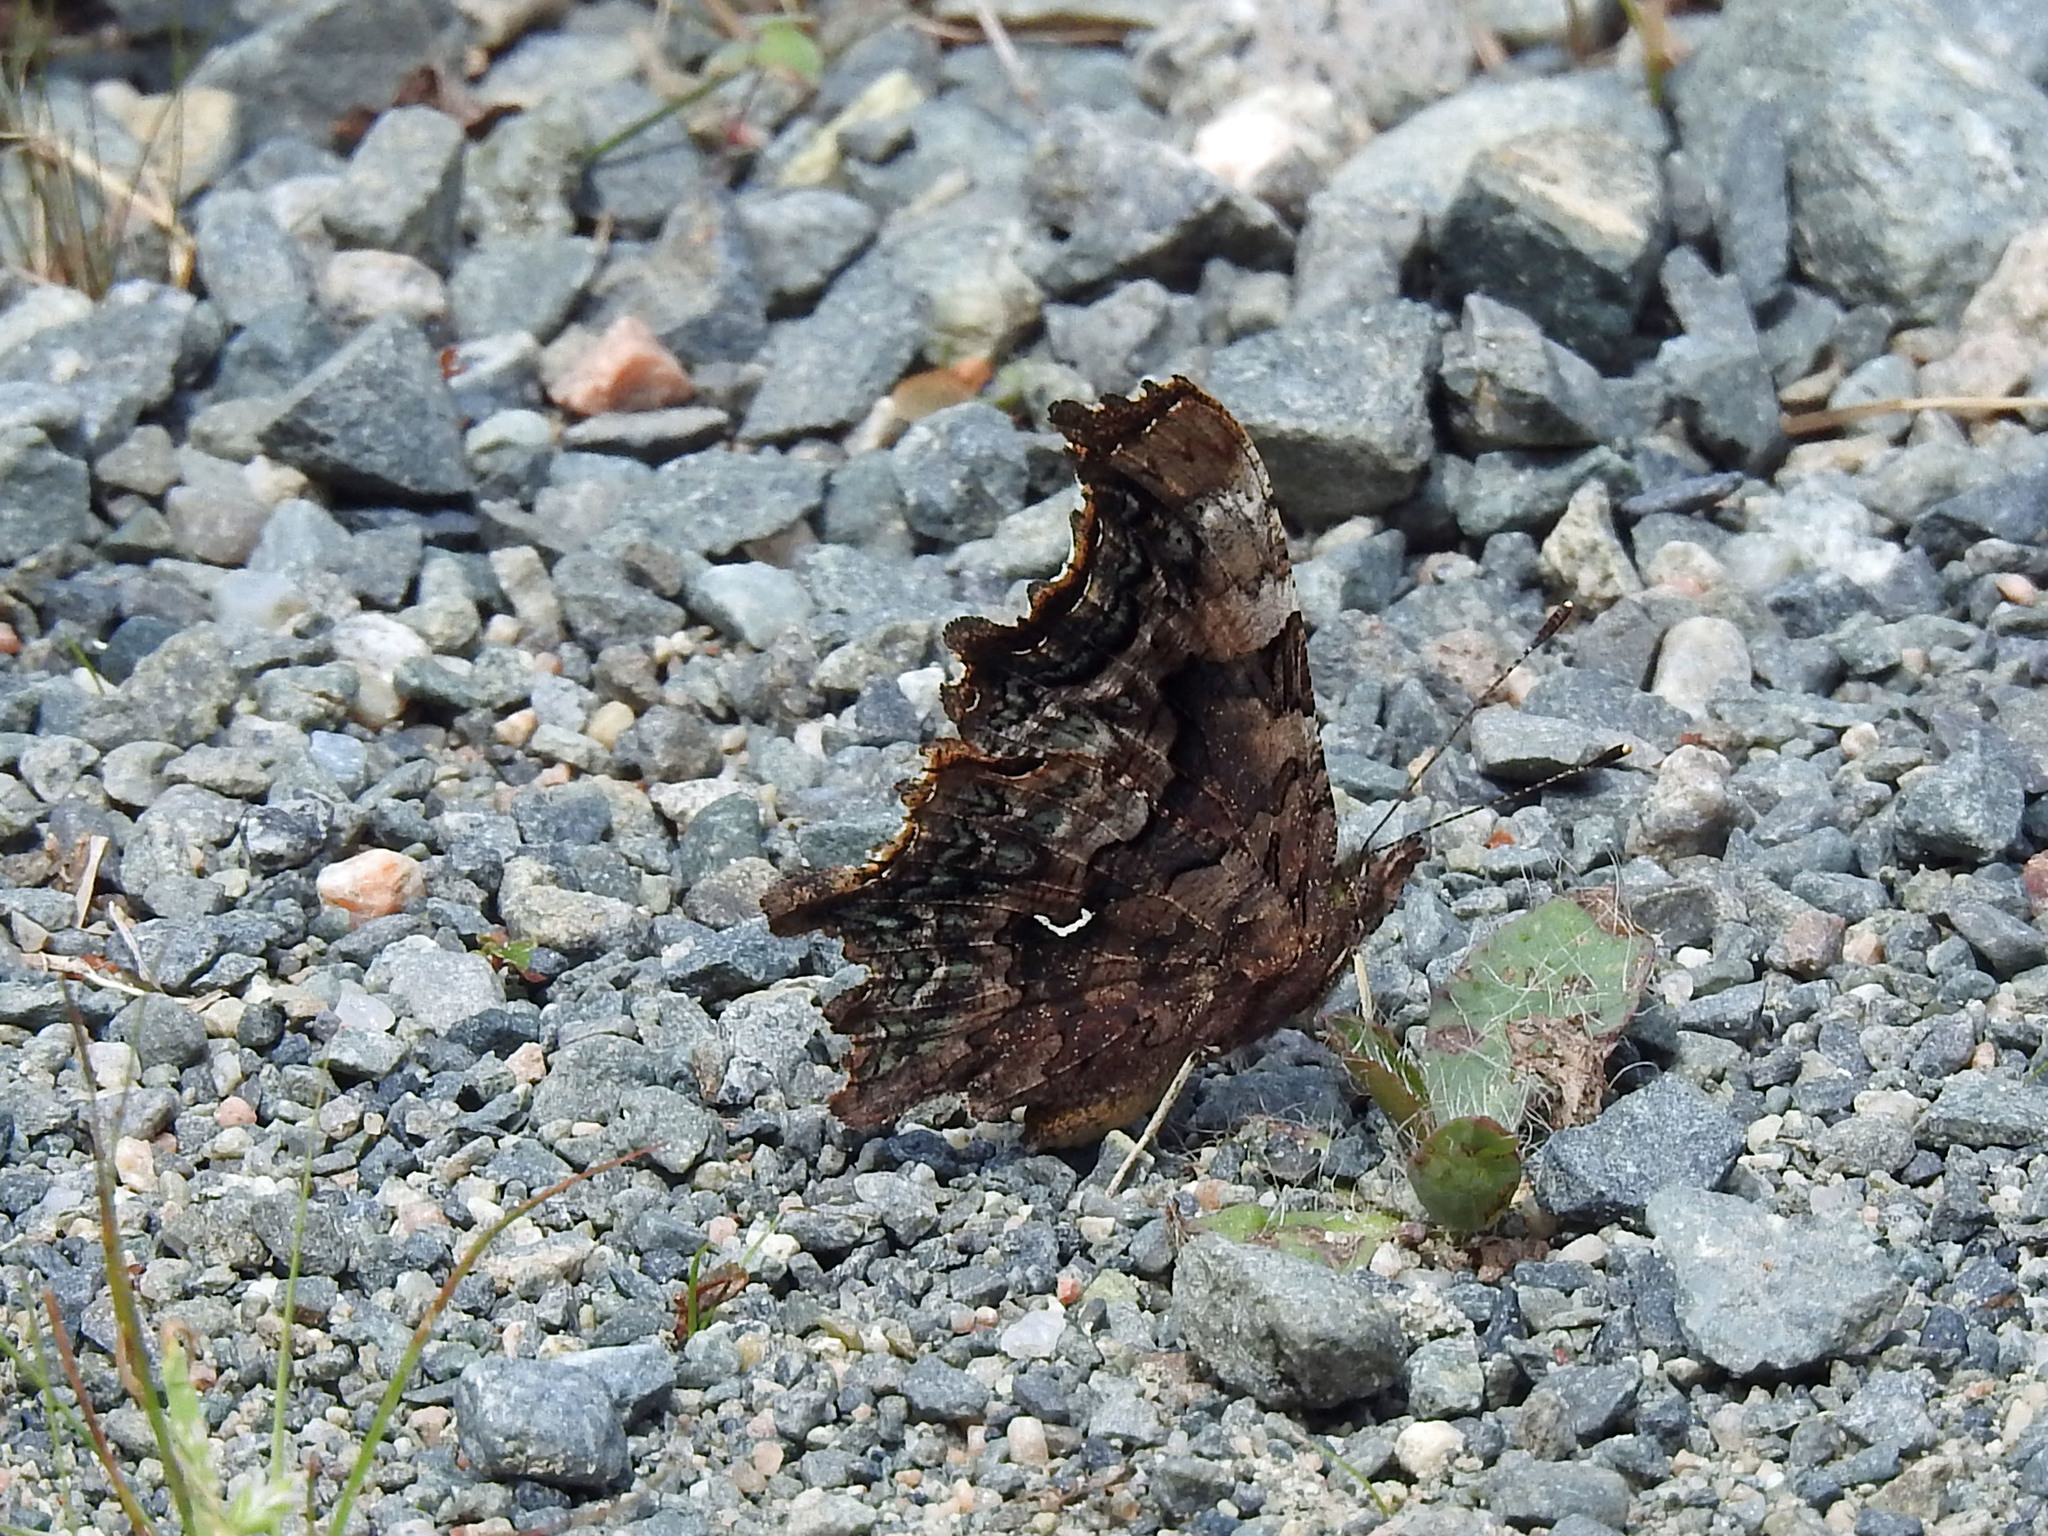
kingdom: Animalia
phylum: Arthropoda
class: Insecta
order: Lepidoptera
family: Nymphalidae
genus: Polygonia
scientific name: Polygonia faunus
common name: Green comma
